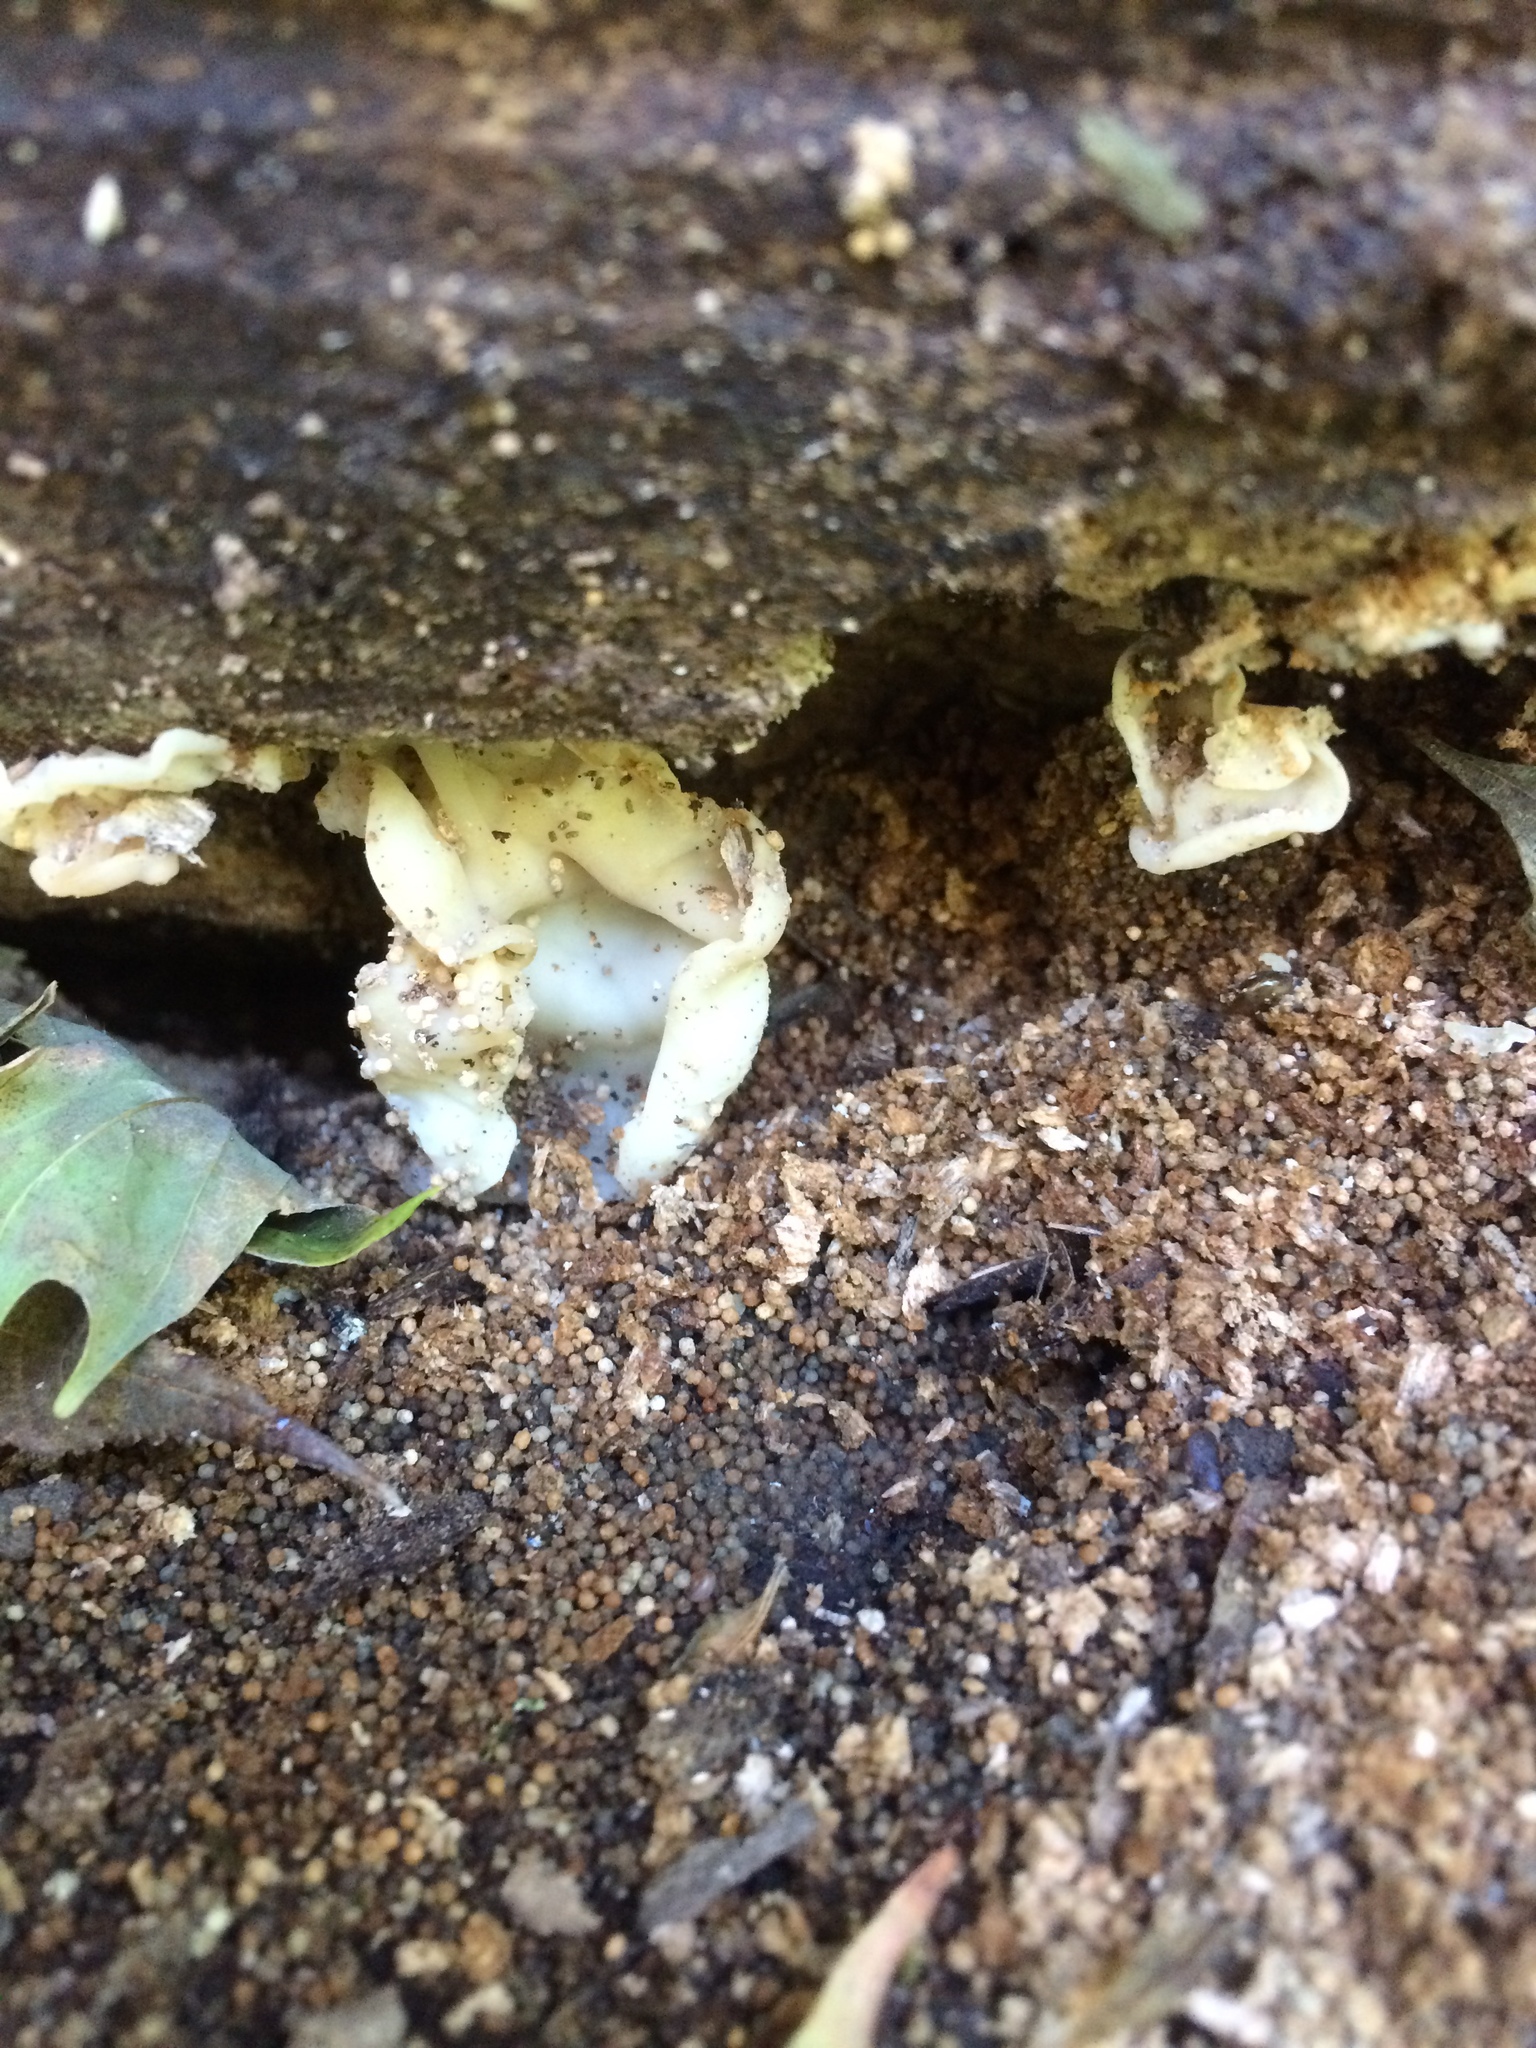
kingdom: Fungi
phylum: Basidiomycota
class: Agaricomycetes
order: Auriculariales
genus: Ductifera
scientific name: Ductifera pululahuana
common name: White jelly fungus
